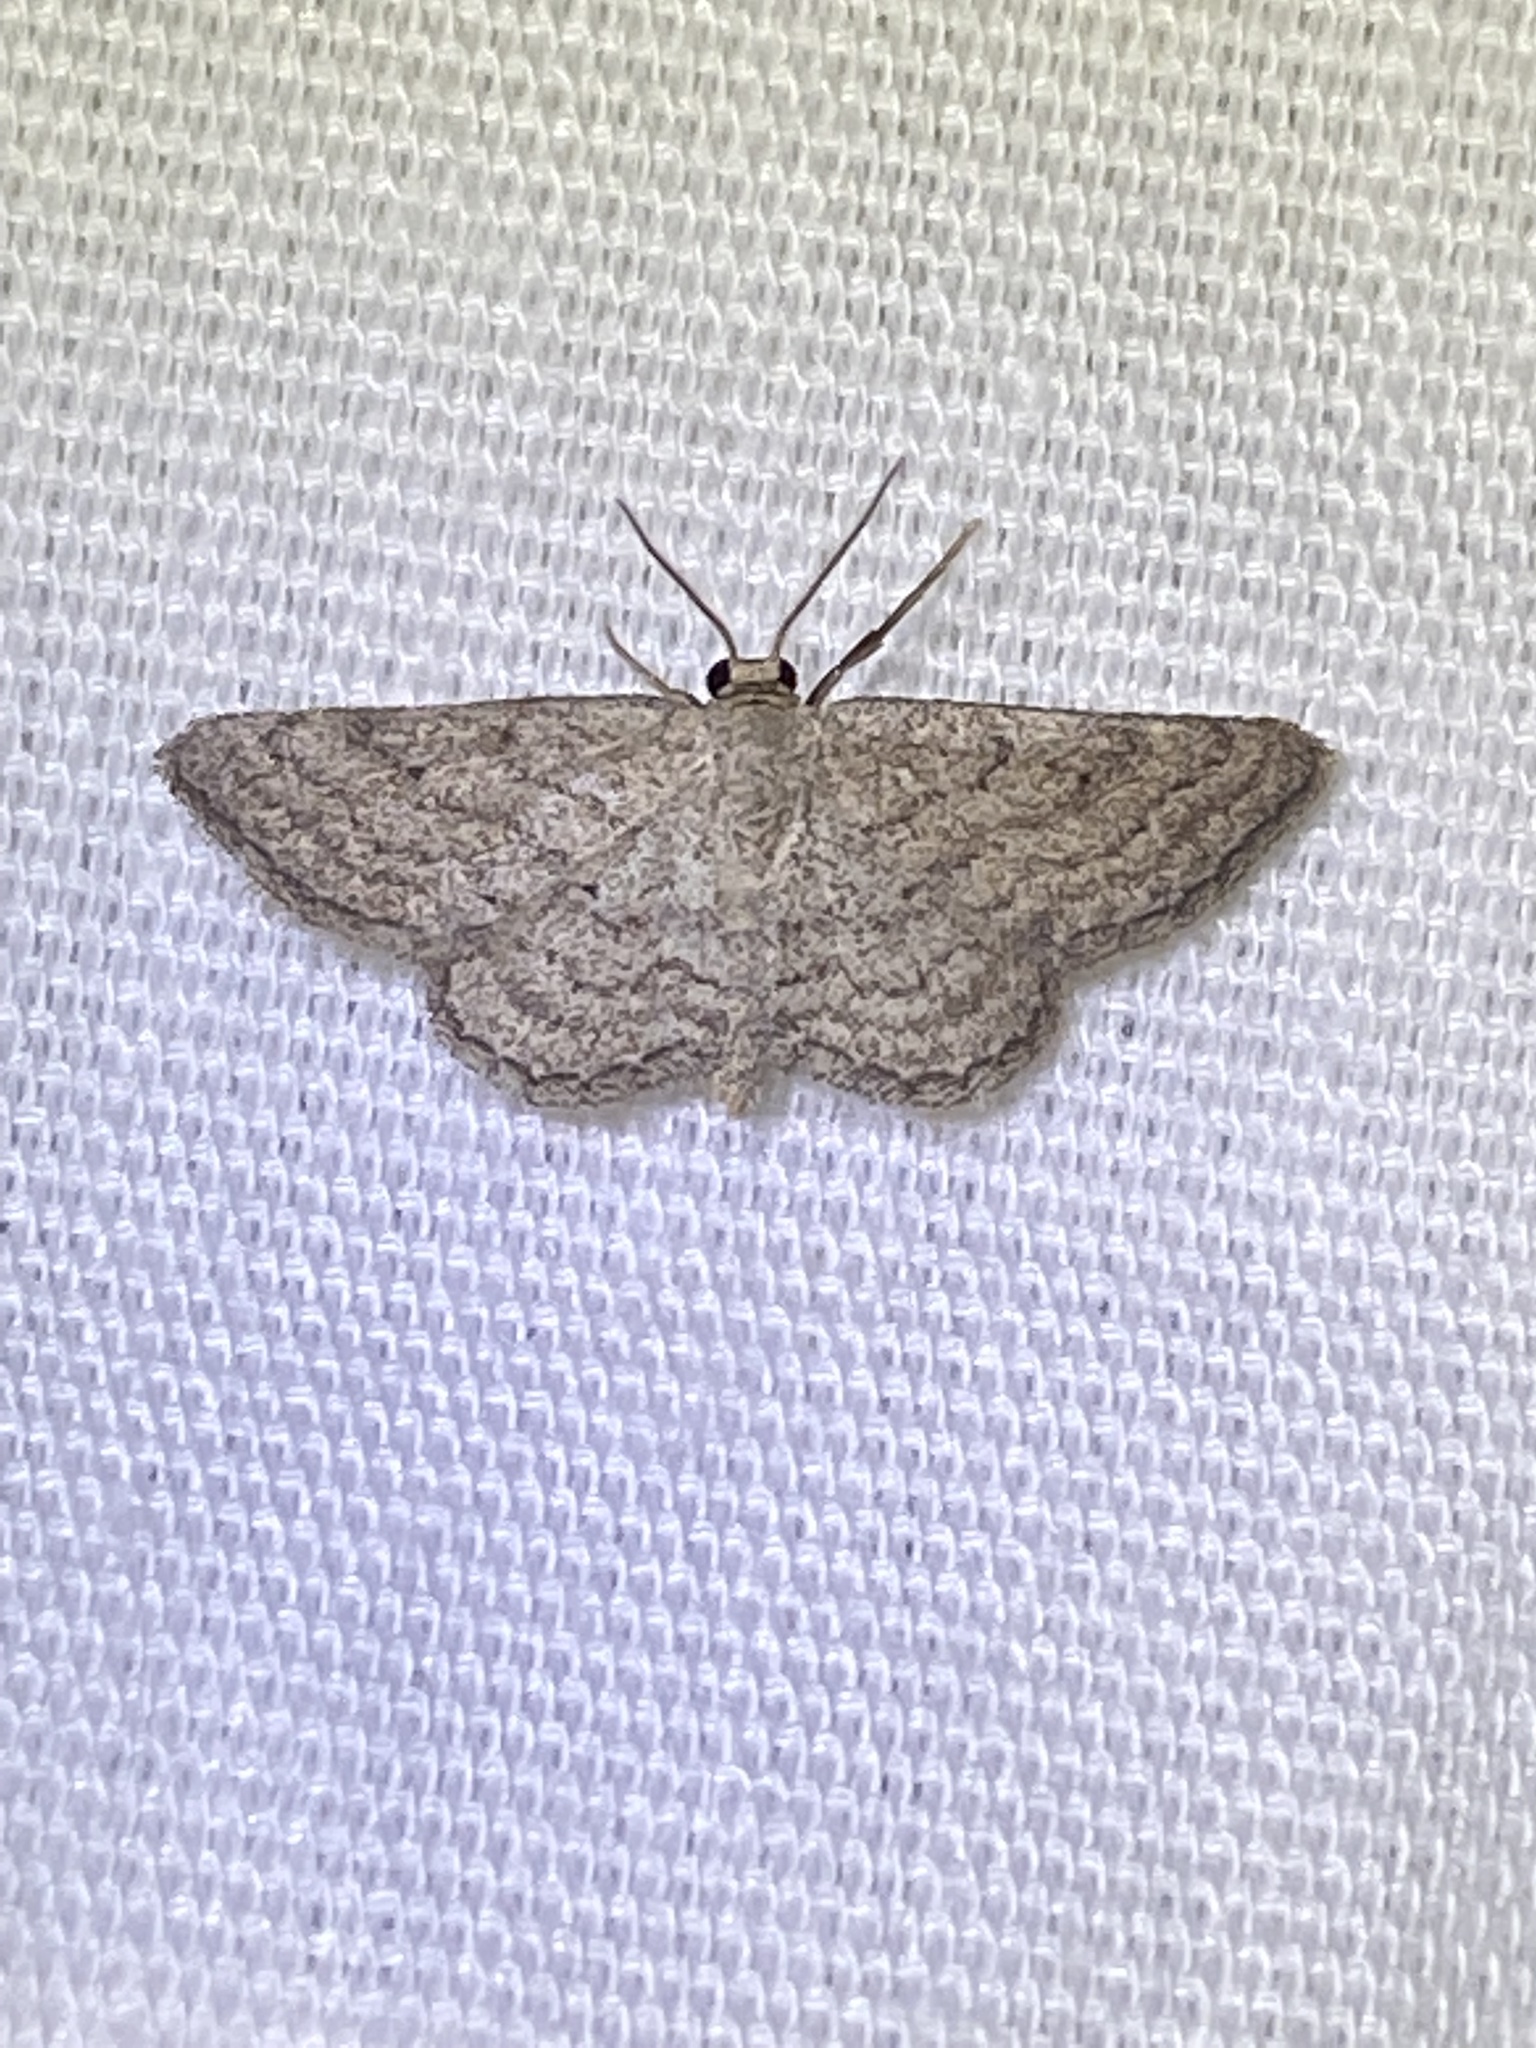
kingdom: Animalia
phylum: Arthropoda
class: Insecta
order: Lepidoptera
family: Geometridae
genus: Lobocleta
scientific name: Lobocleta ossularia
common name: Drab brown wave
